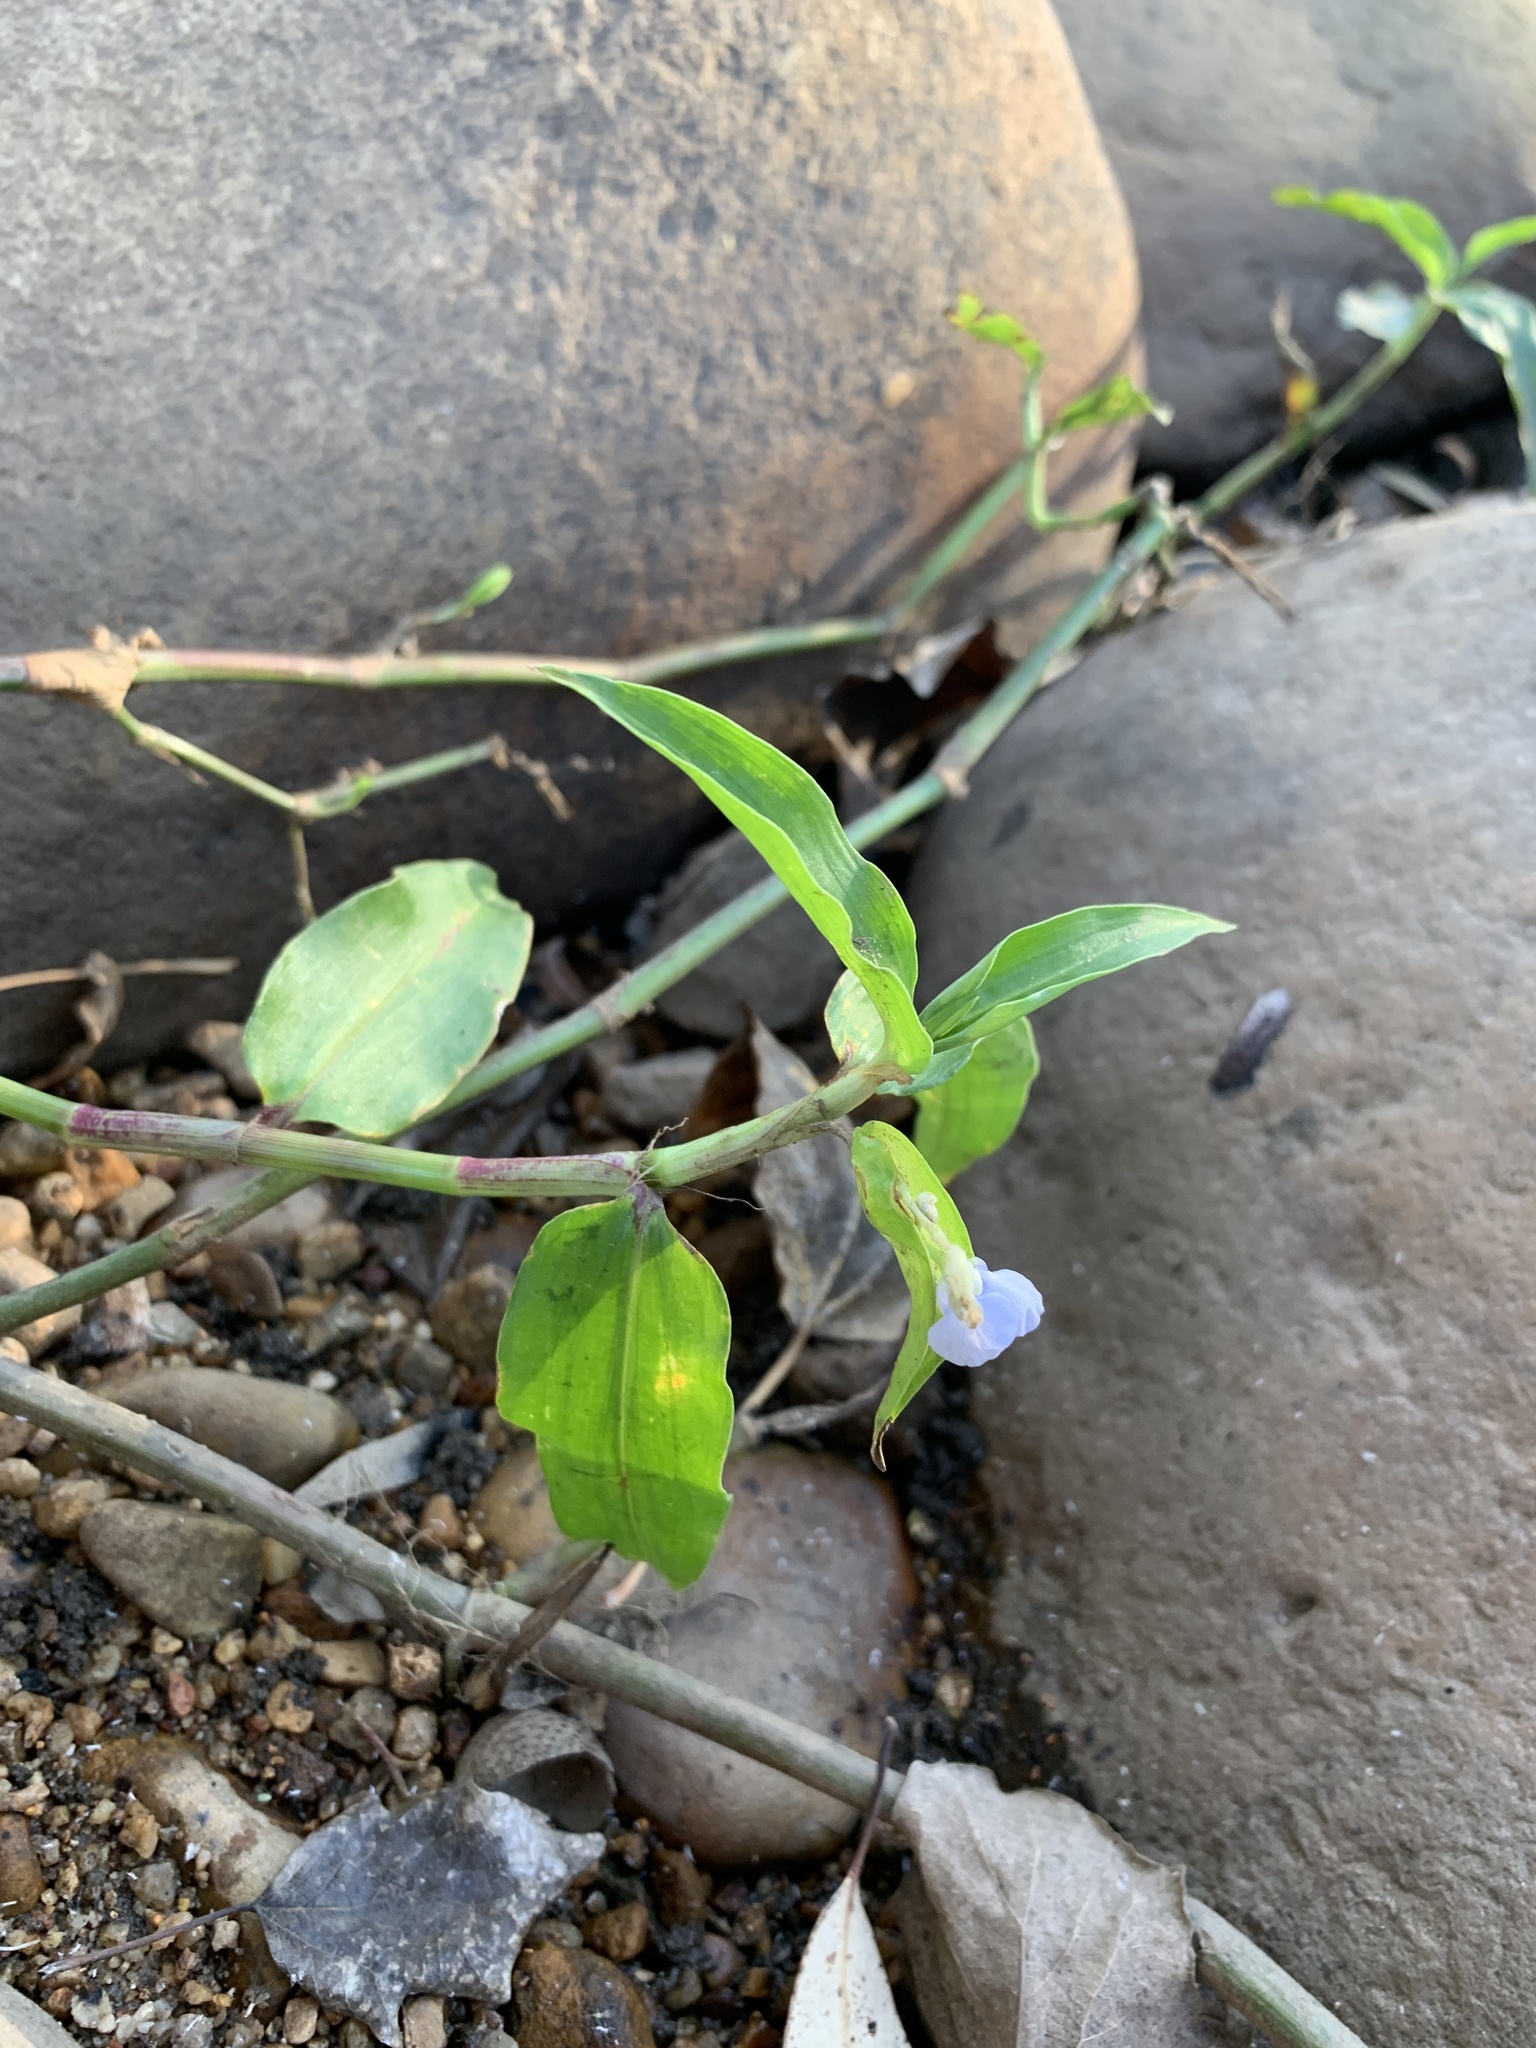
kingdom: Plantae
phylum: Tracheophyta
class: Liliopsida
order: Commelinales
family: Commelinaceae
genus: Commelina
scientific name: Commelina diffusa
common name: Climbing dayflower
